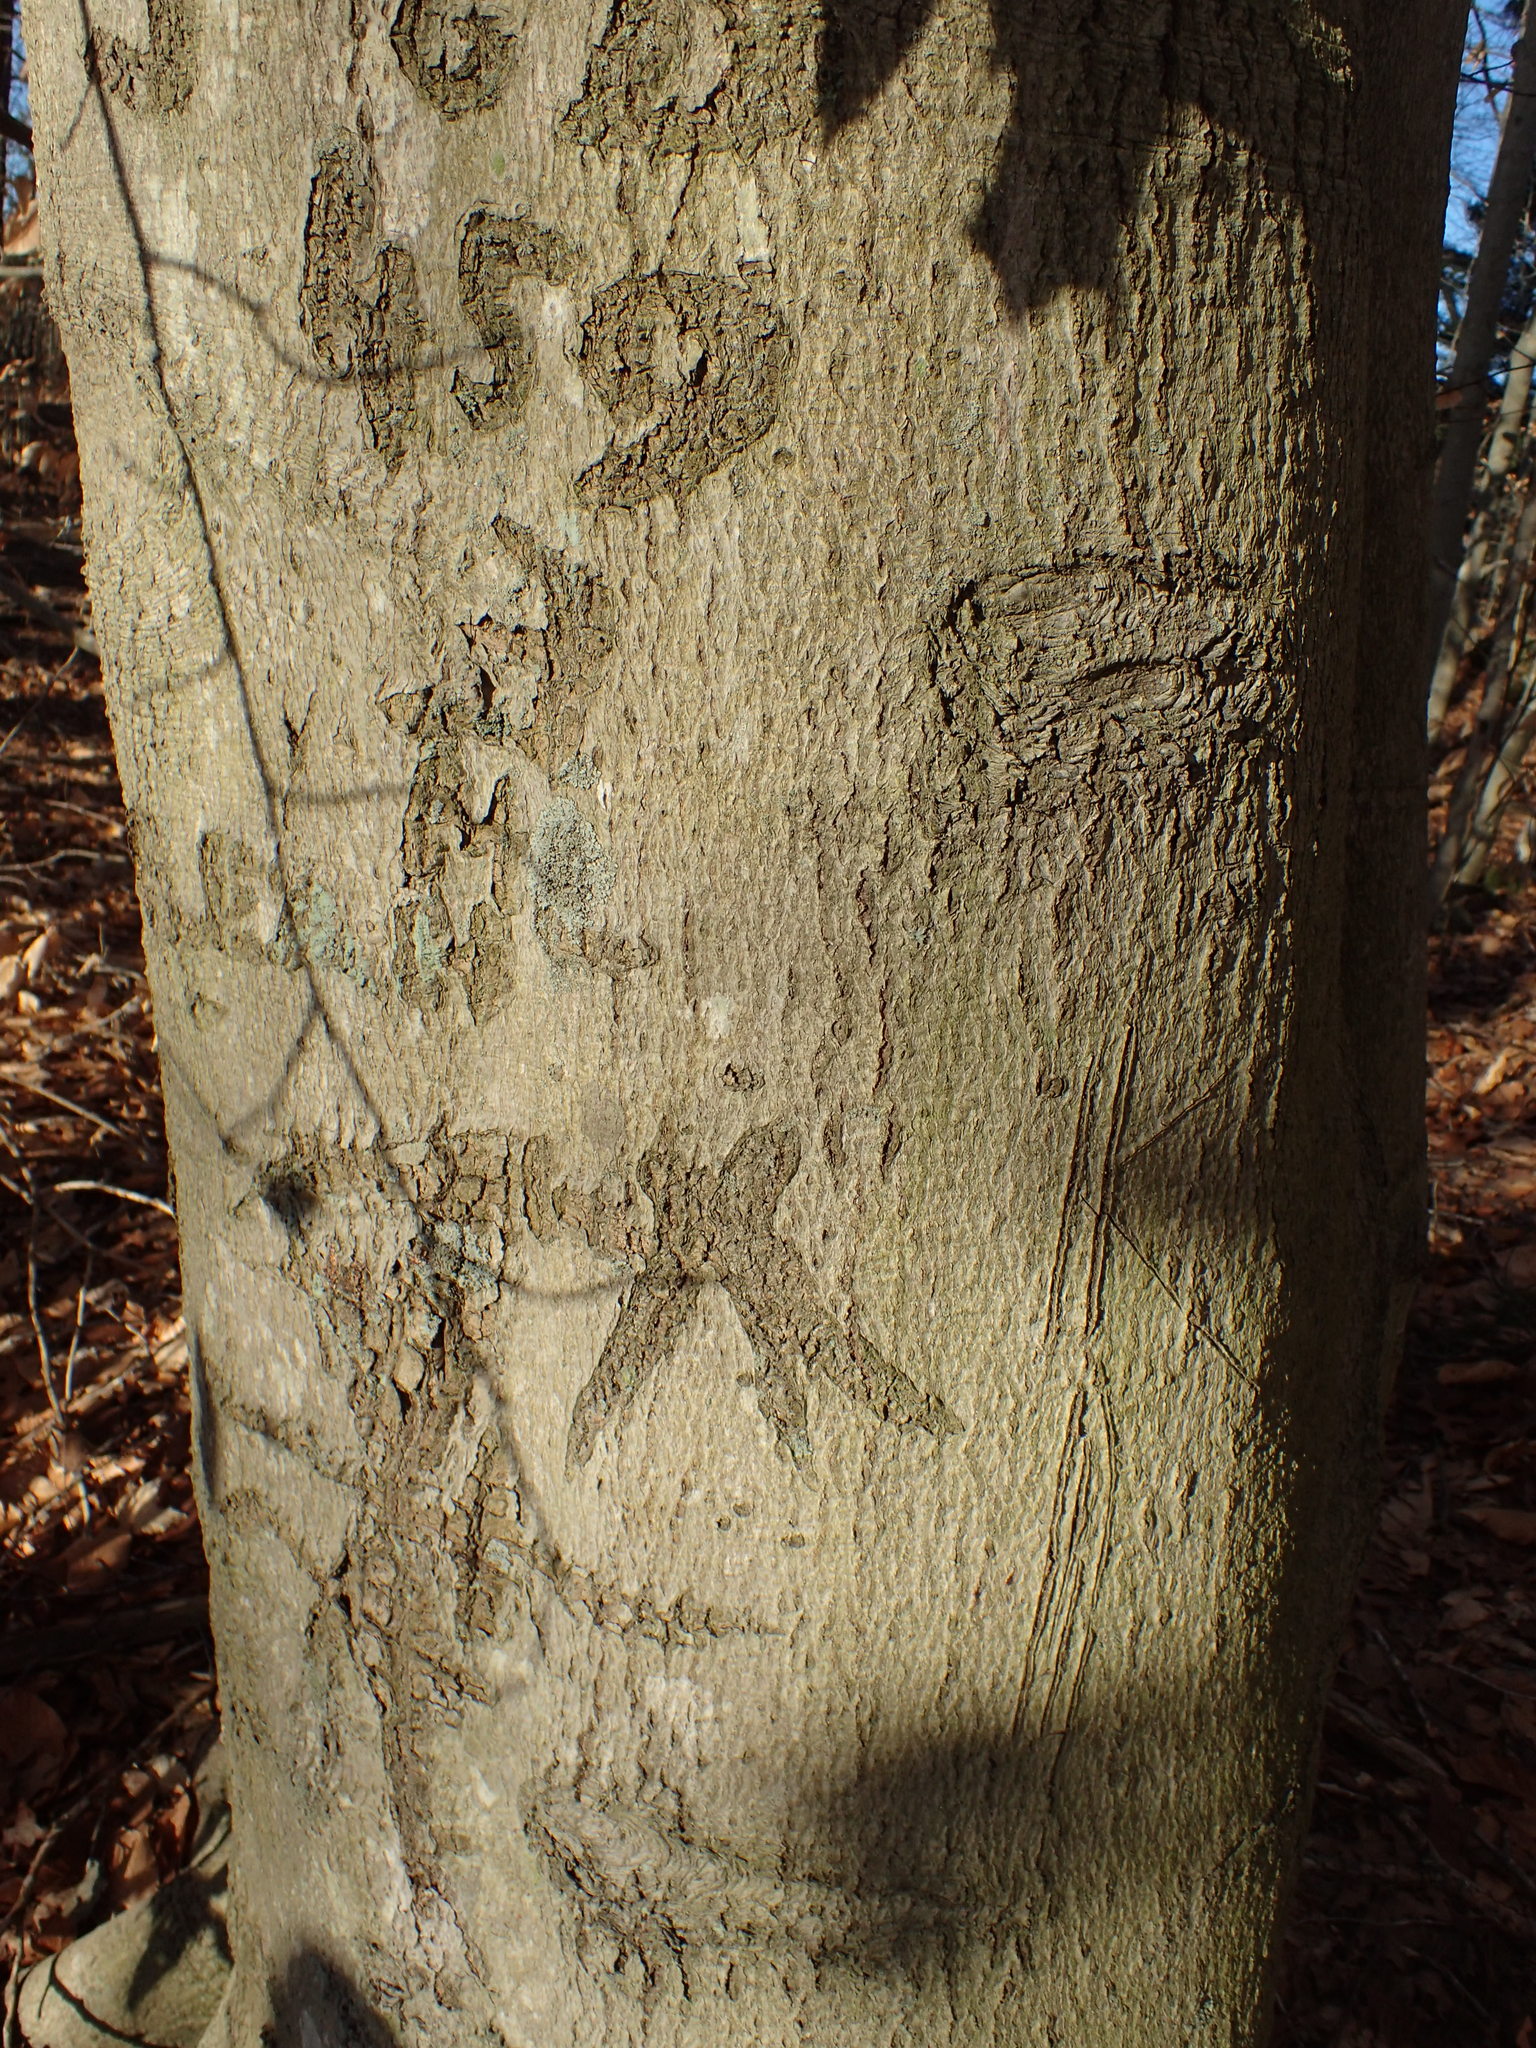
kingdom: Plantae
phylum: Tracheophyta
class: Magnoliopsida
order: Fagales
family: Fagaceae
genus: Fagus
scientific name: Fagus grandifolia
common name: American beech
